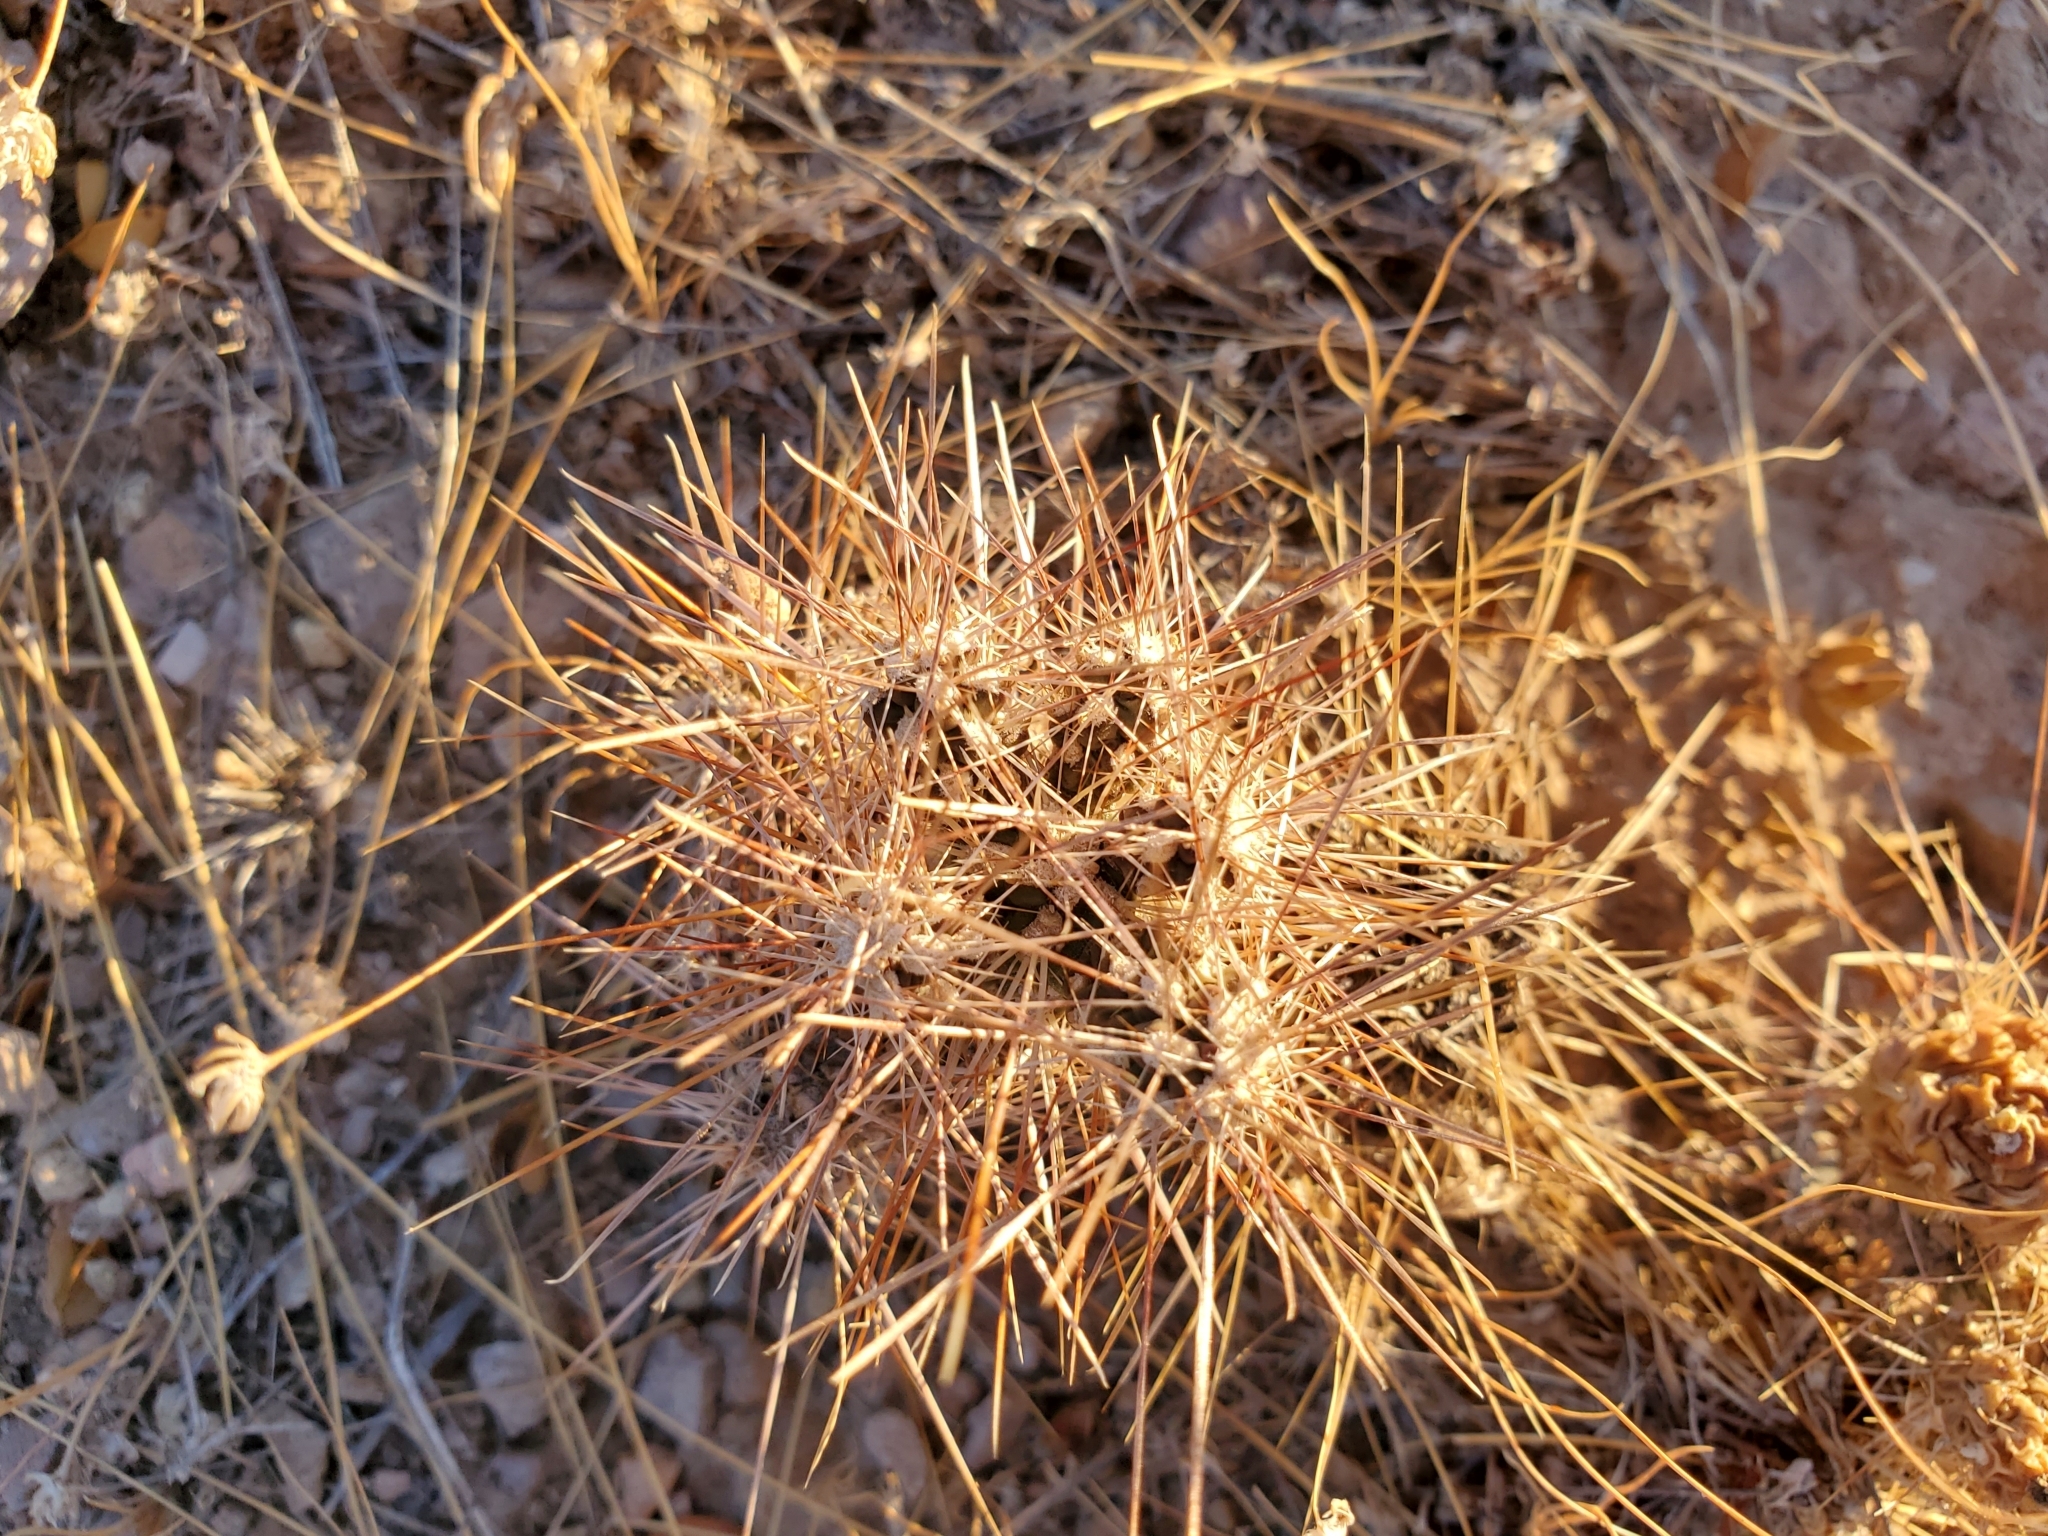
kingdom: Plantae
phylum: Tracheophyta
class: Magnoliopsida
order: Caryophyllales
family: Cactaceae
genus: Echinocereus
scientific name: Echinocereus engelmannii
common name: Engelmann's hedgehog cactus
